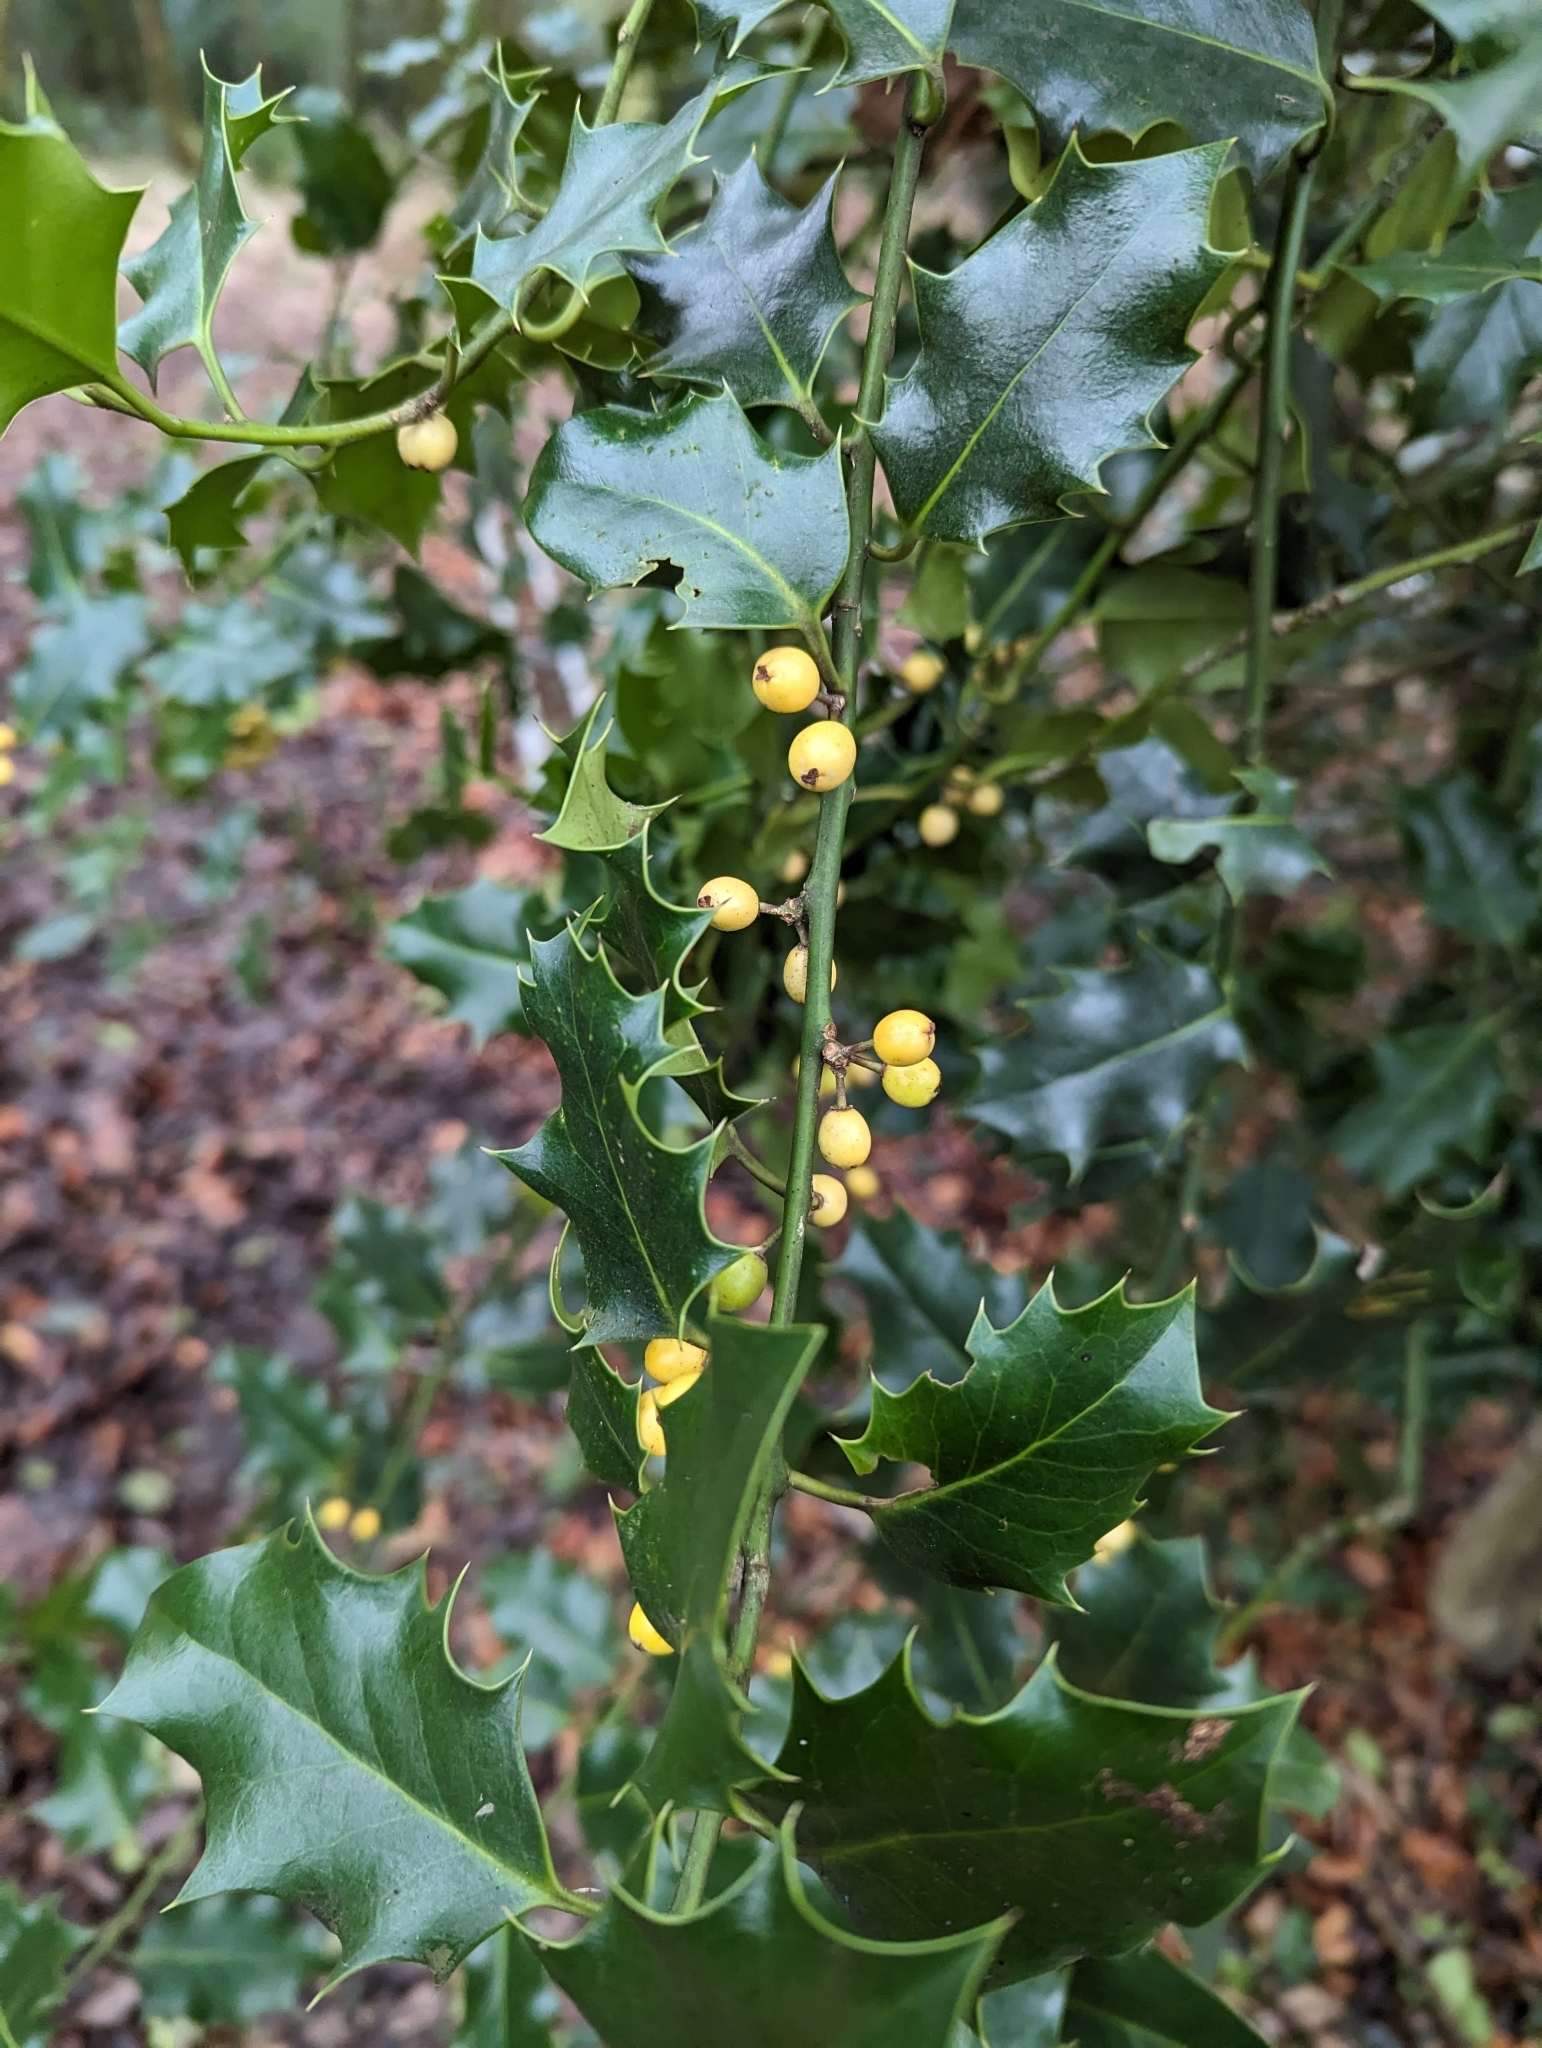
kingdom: Plantae
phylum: Tracheophyta
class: Magnoliopsida
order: Aquifoliales
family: Aquifoliaceae
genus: Ilex
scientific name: Ilex aquifolium
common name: English holly
